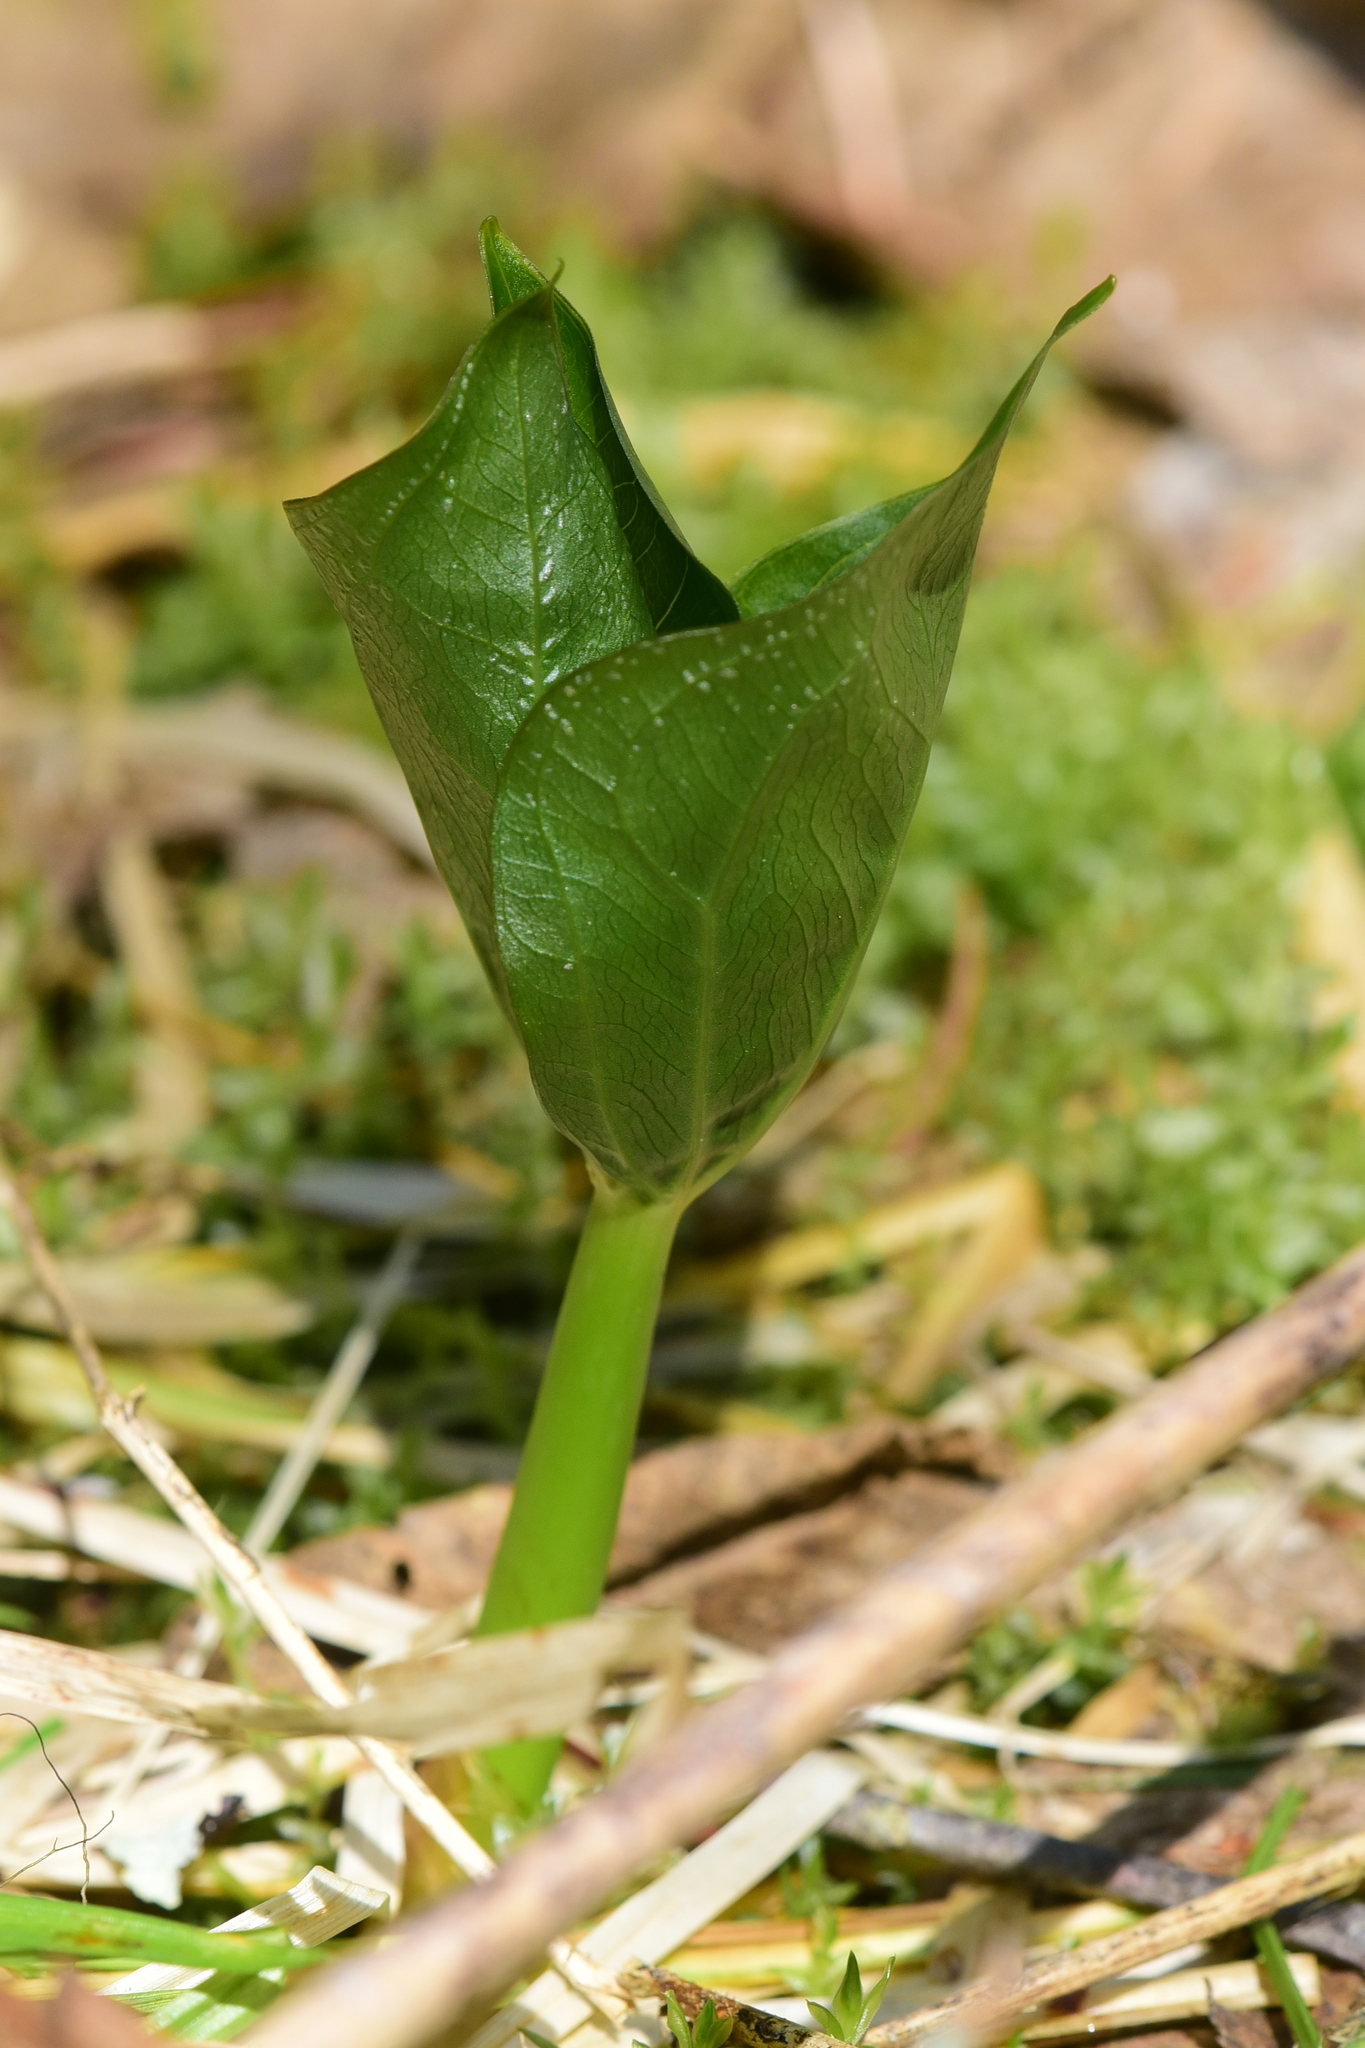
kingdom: Plantae
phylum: Tracheophyta
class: Liliopsida
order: Liliales
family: Melanthiaceae
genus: Trillium
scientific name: Trillium ovatum
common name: Pacific trillium
